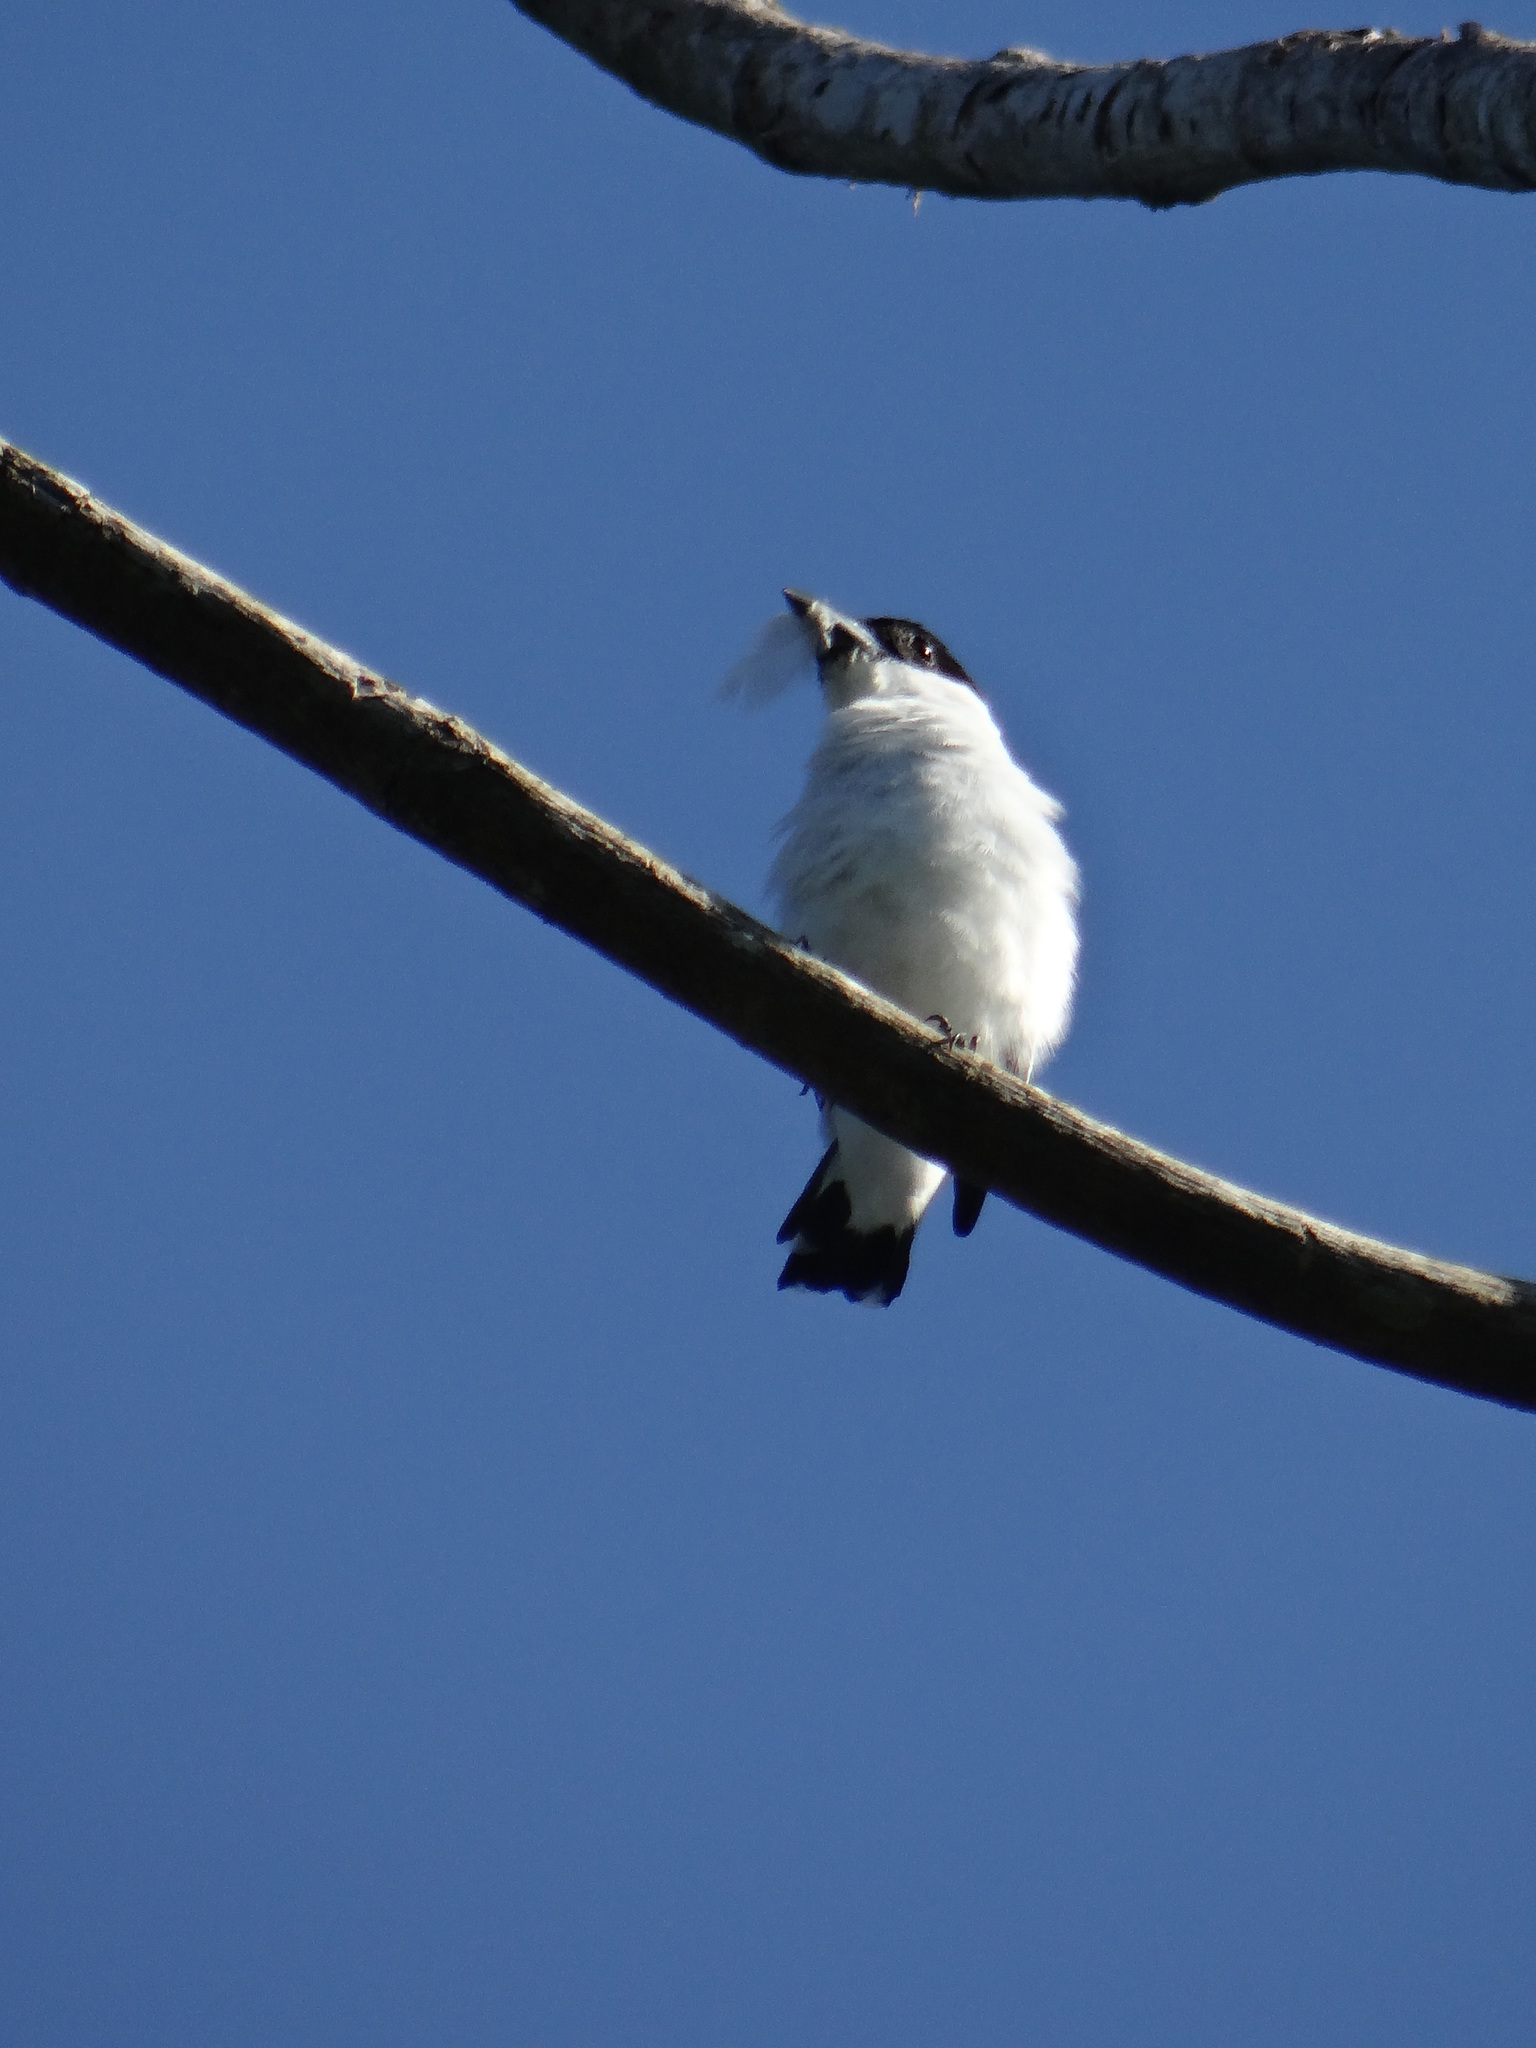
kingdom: Animalia
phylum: Chordata
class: Aves
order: Passeriformes
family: Cotingidae
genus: Tityra
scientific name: Tityra inquisitor
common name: Black-crowned tityra
